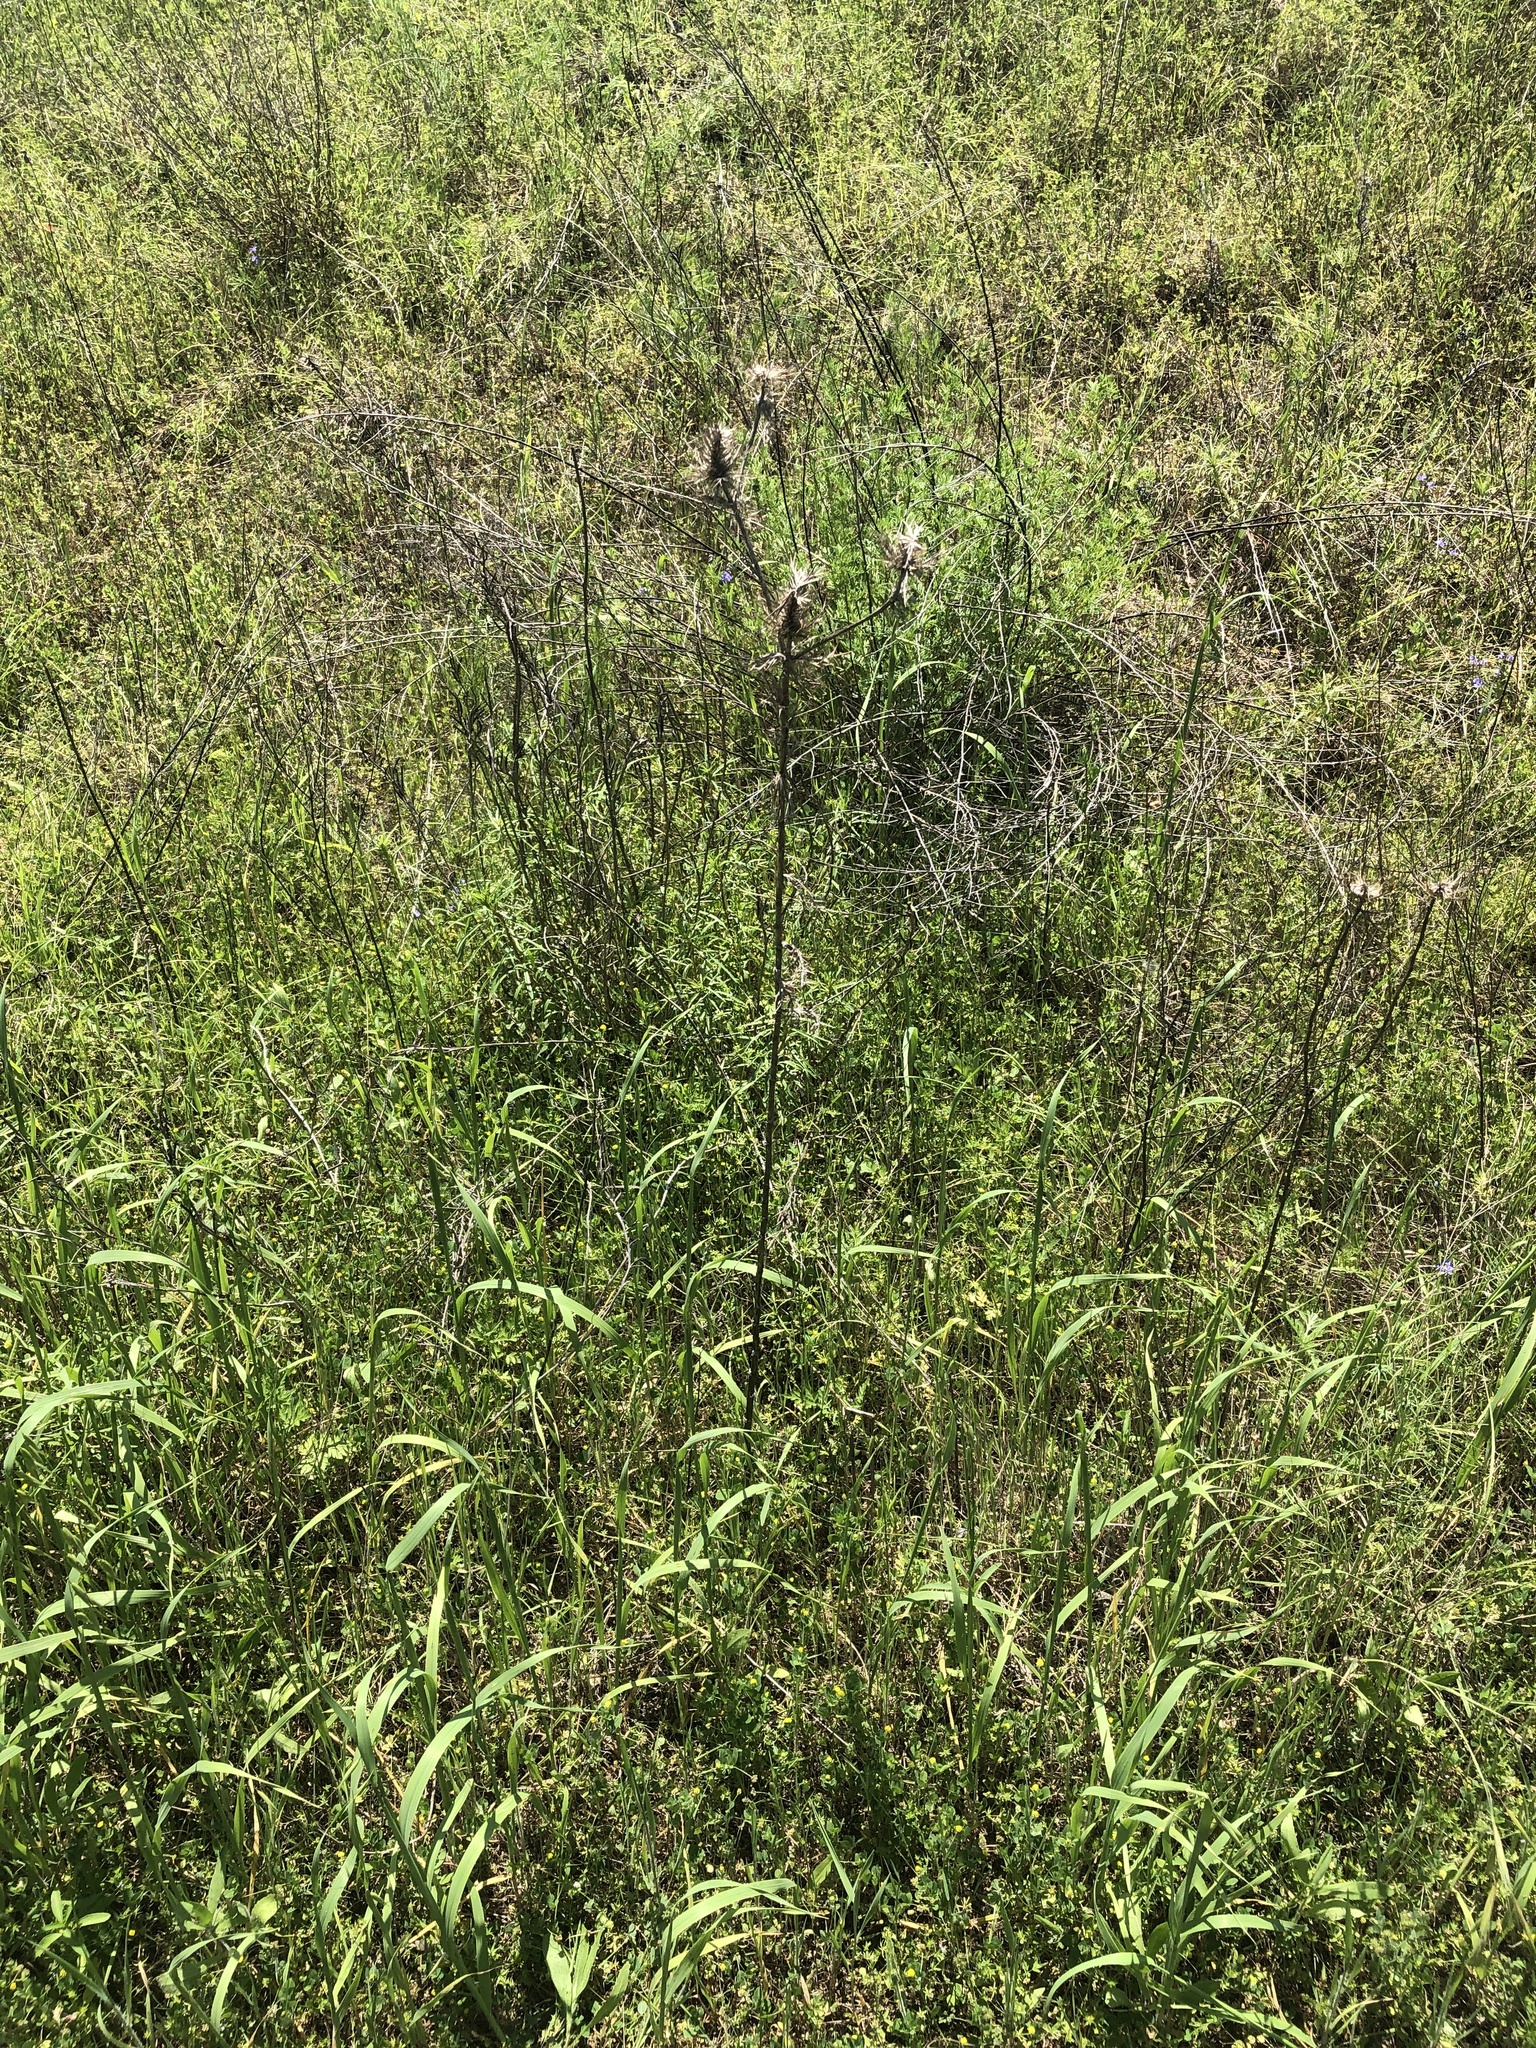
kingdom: Plantae
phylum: Tracheophyta
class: Magnoliopsida
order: Apiales
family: Apiaceae
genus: Eryngium
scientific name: Eryngium leavenworthii
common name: Leavenworth's eryngo
